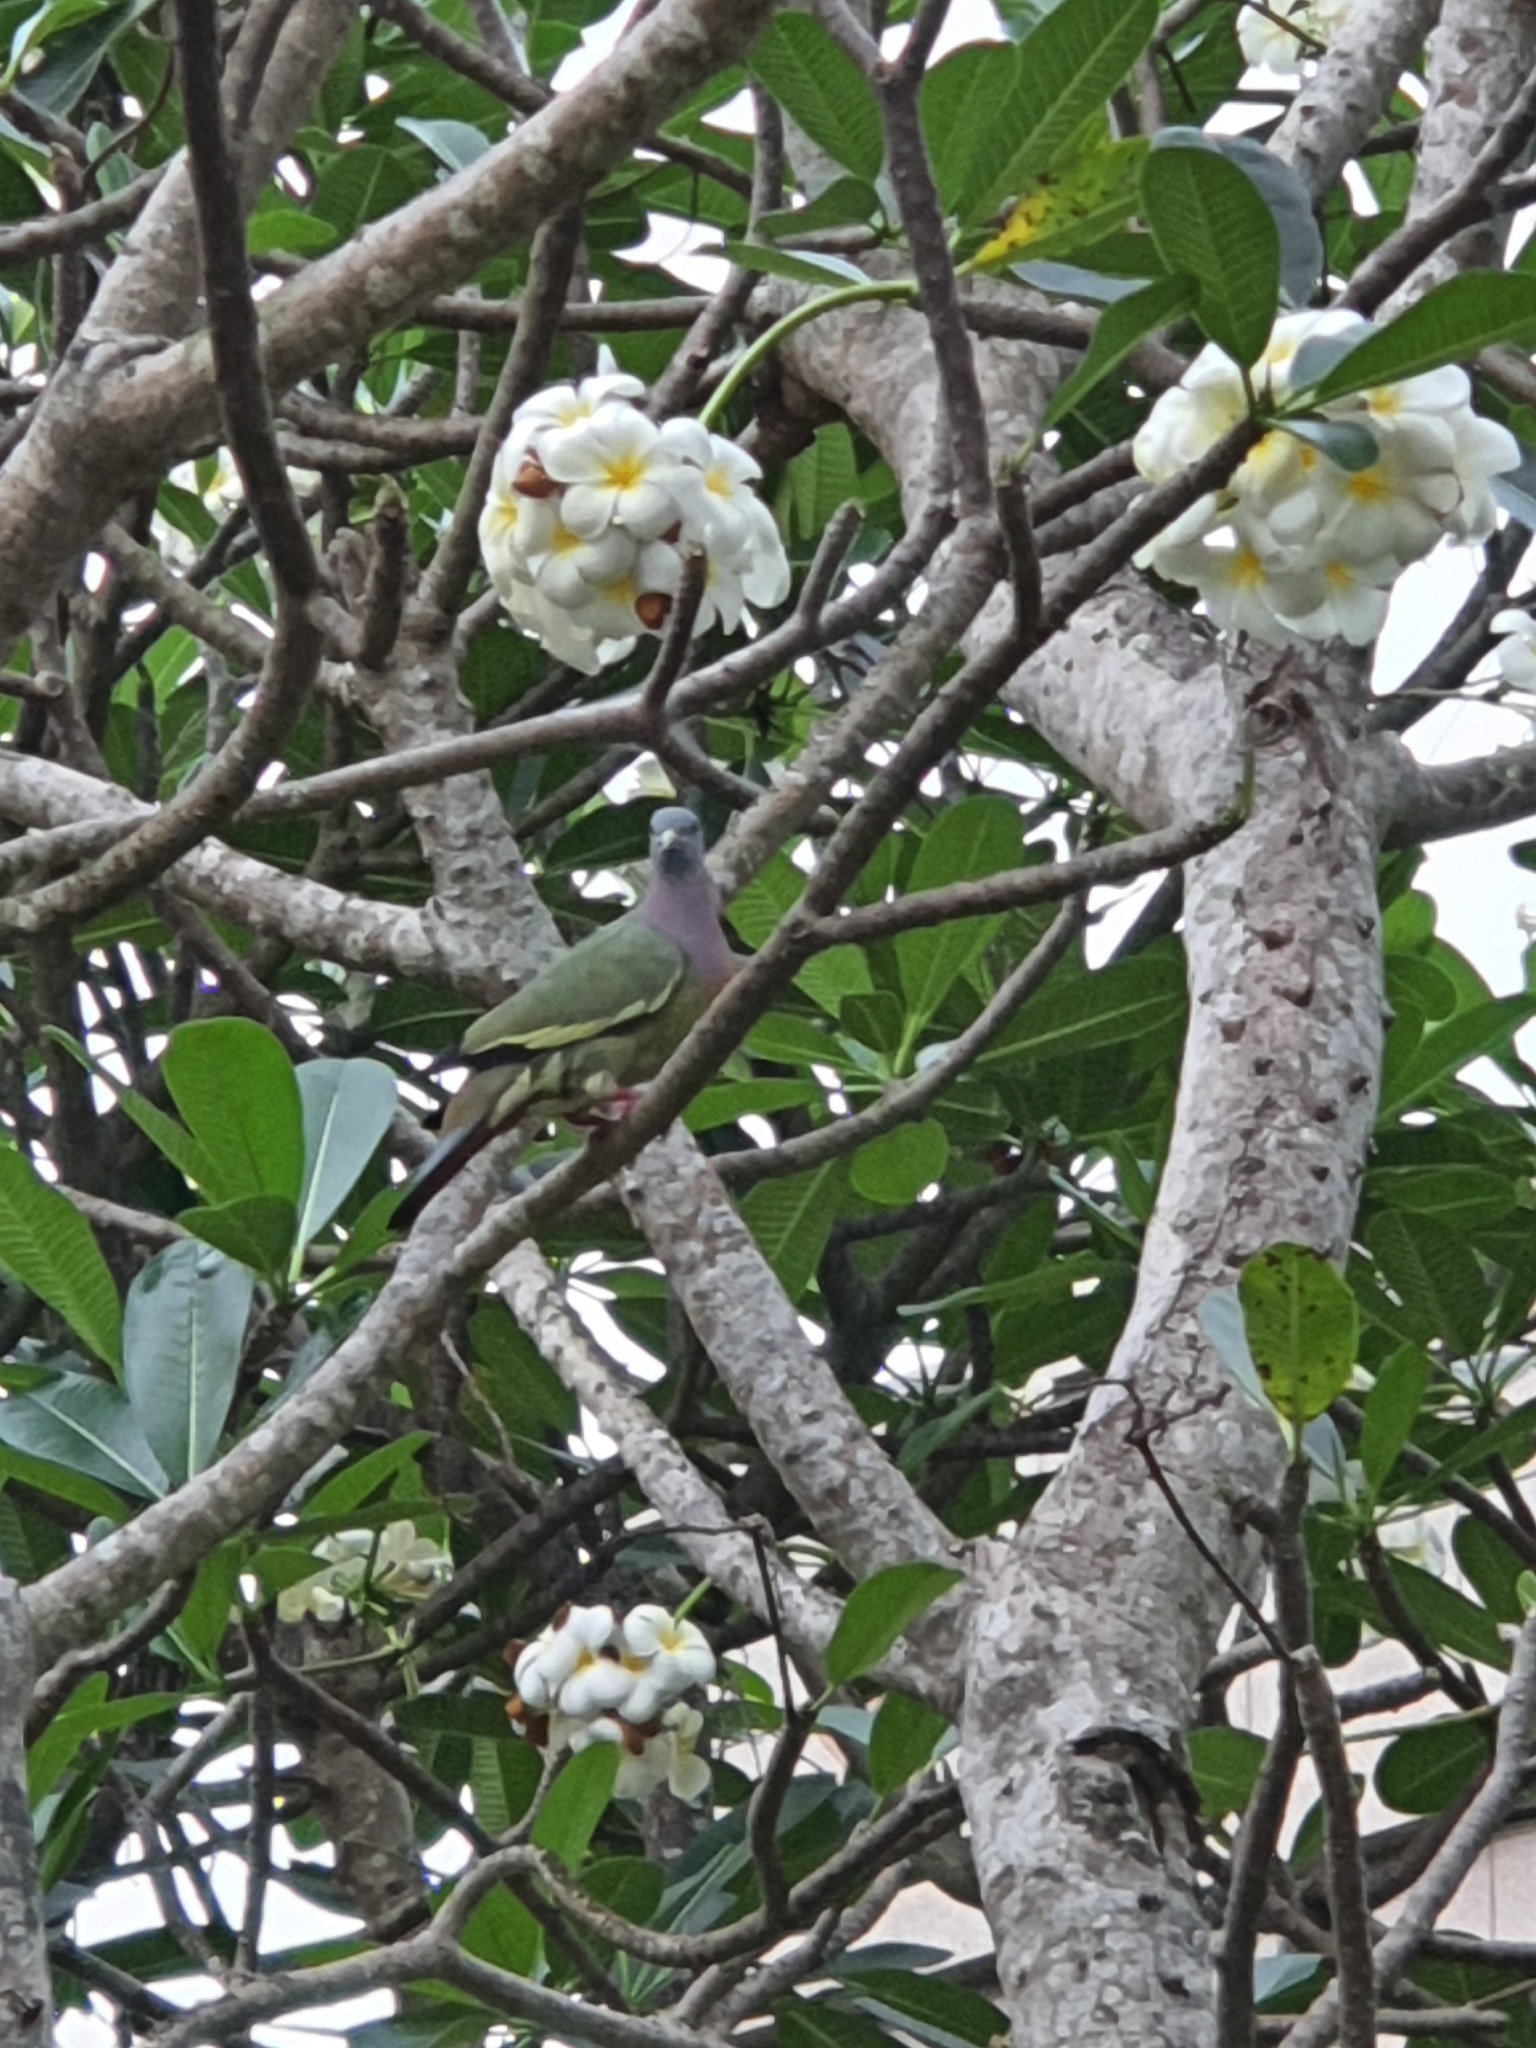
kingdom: Animalia
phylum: Chordata
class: Aves
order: Columbiformes
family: Columbidae
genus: Treron
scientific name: Treron vernans
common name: Pink-necked green pigeon
